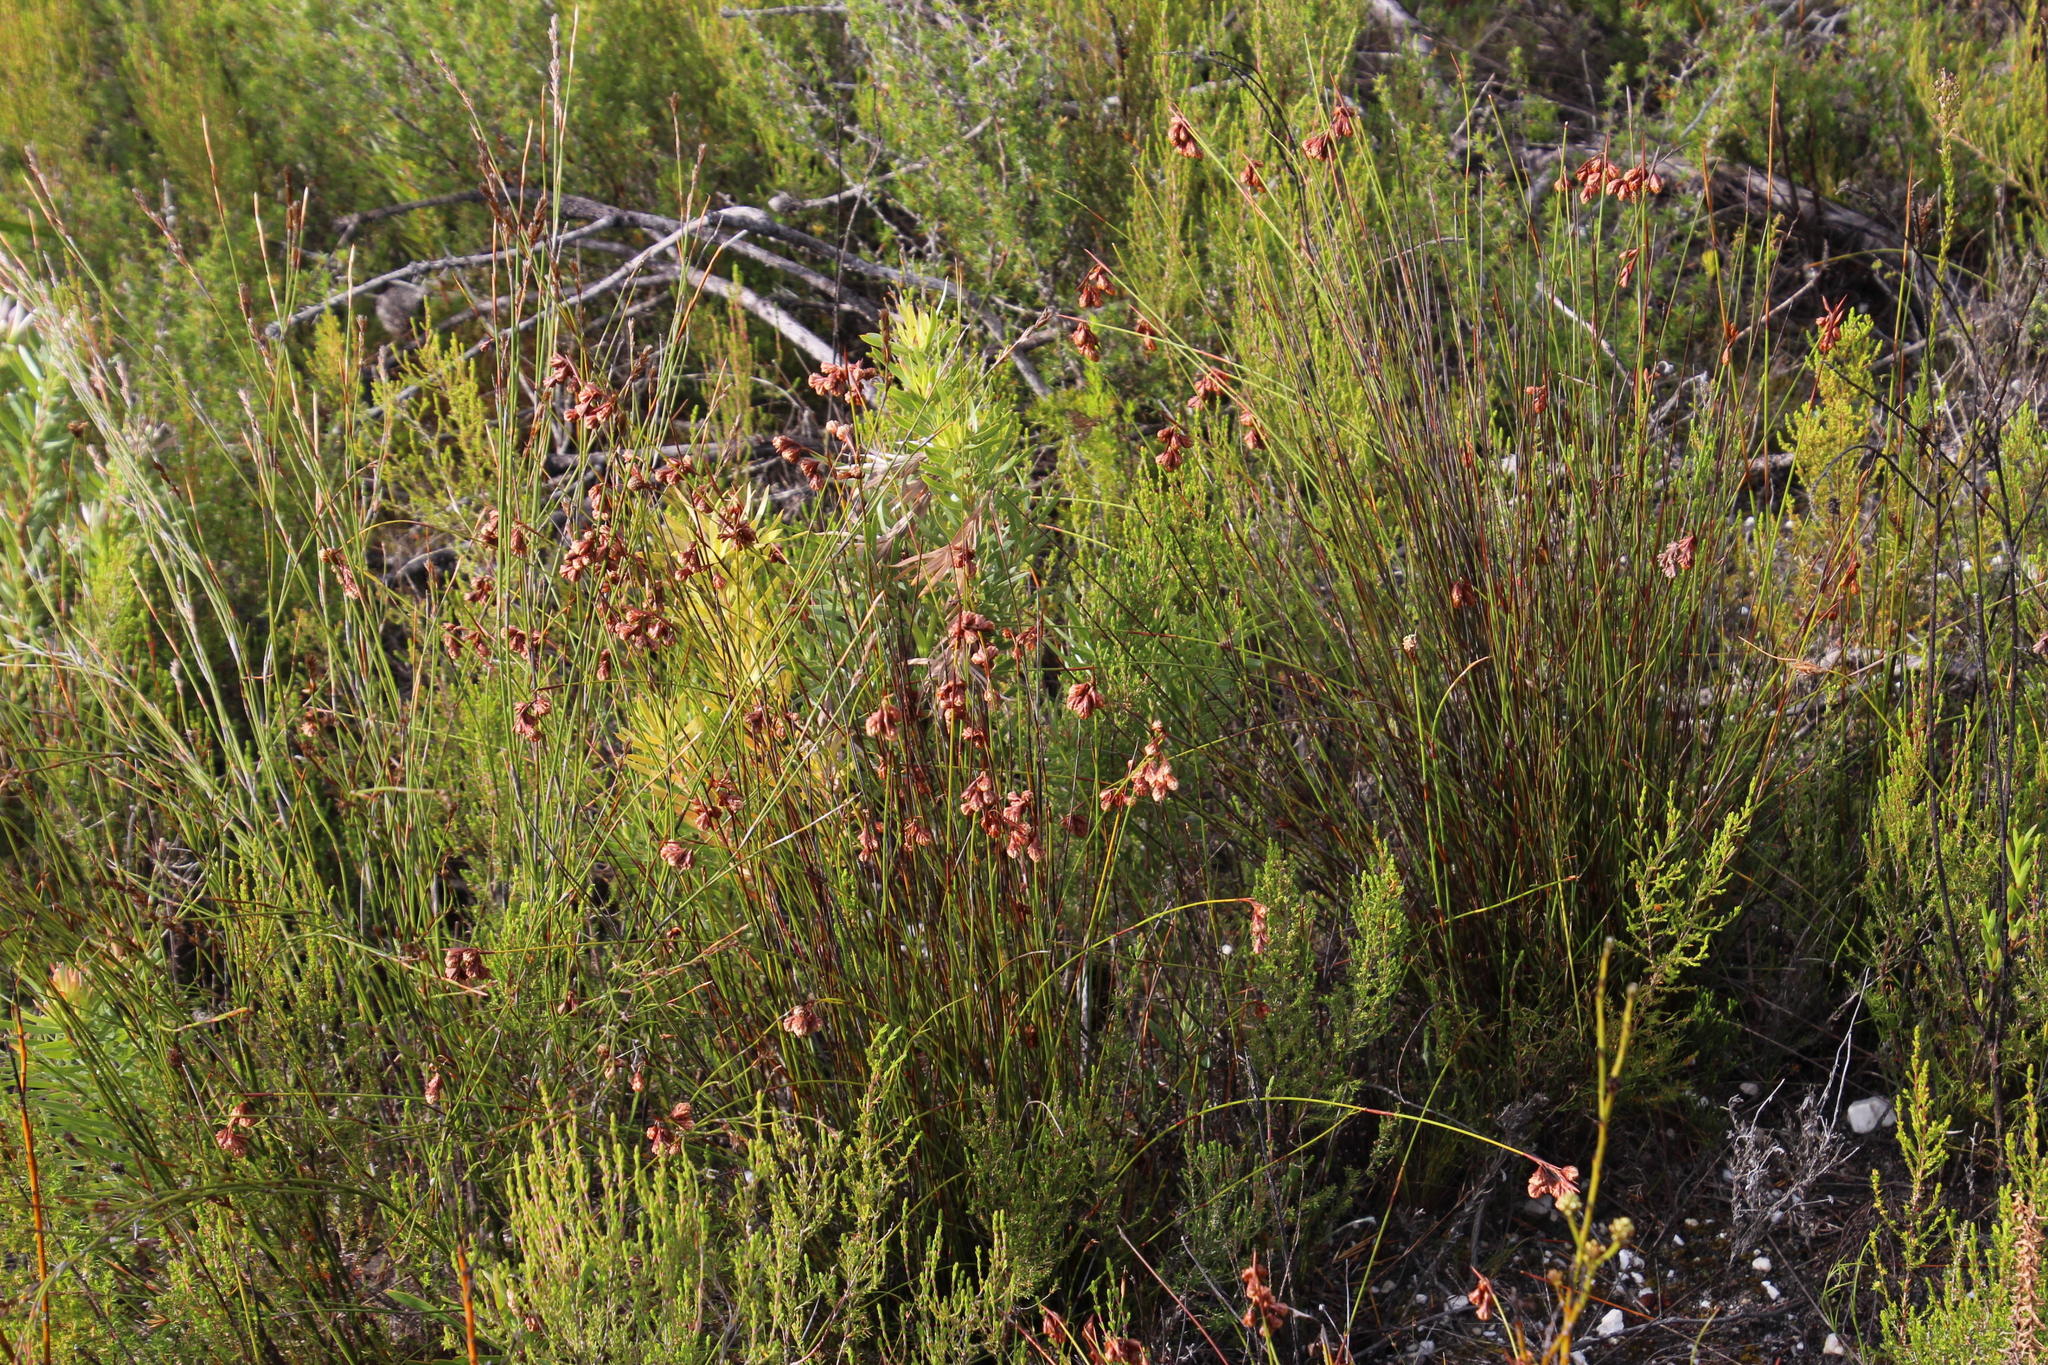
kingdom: Plantae
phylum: Tracheophyta
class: Liliopsida
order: Poales
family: Restionaceae
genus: Staberoha
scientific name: Staberoha cernua
